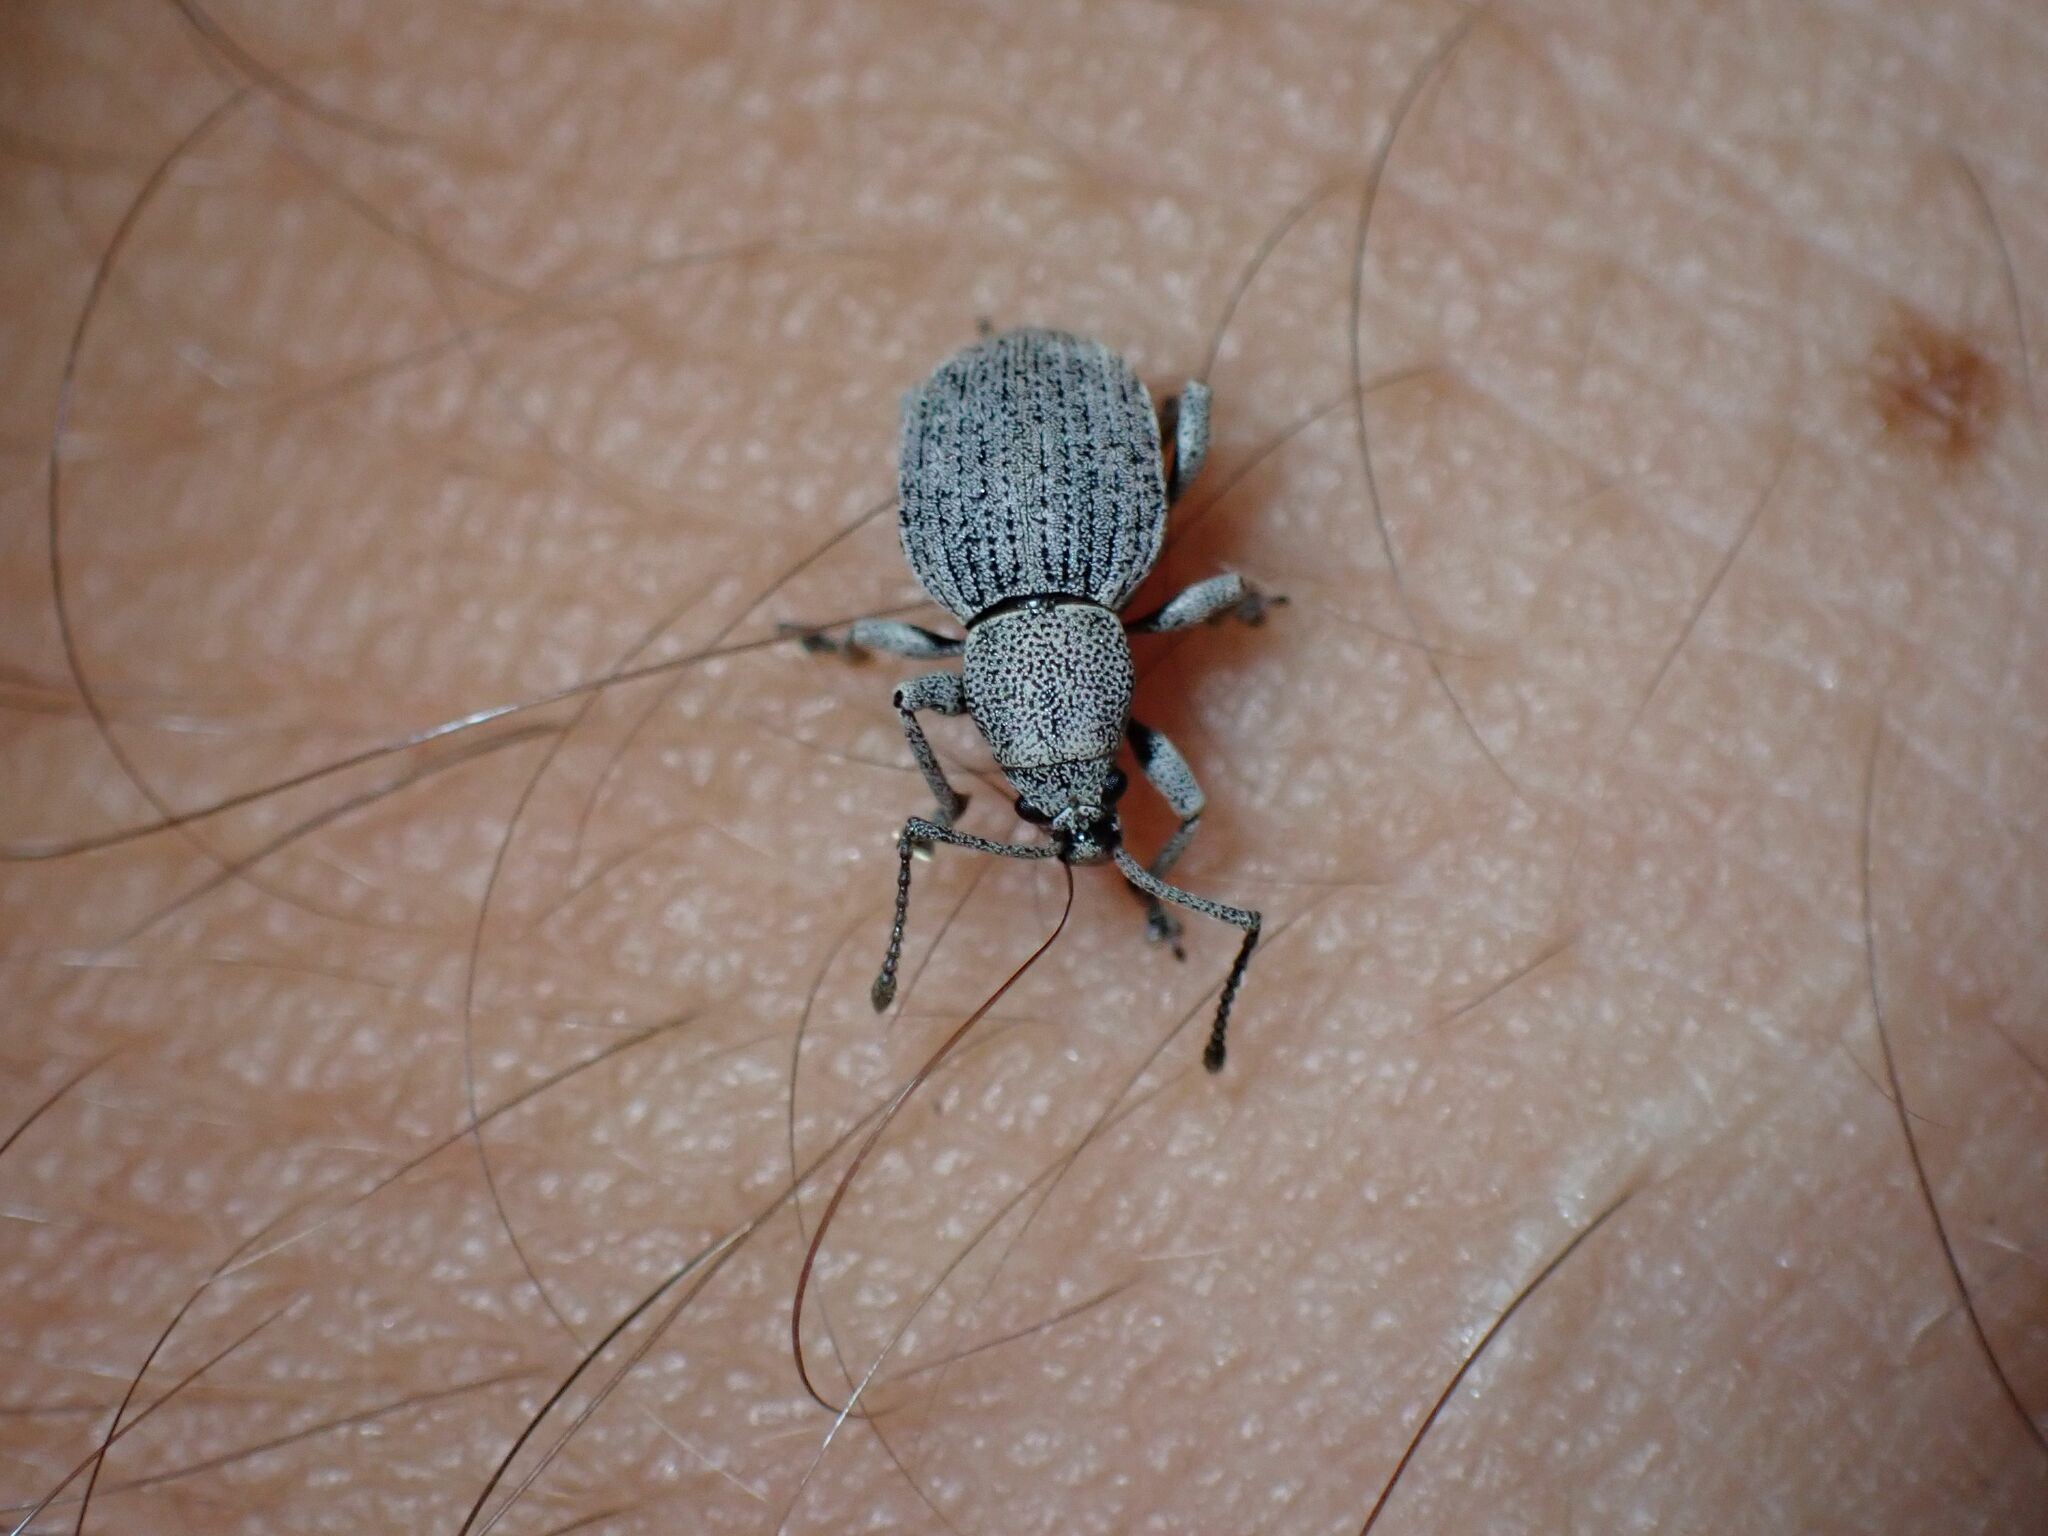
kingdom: Animalia
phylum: Arthropoda
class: Insecta
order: Coleoptera
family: Curculionidae
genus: Platysimus
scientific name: Platysimus septentrionalis
